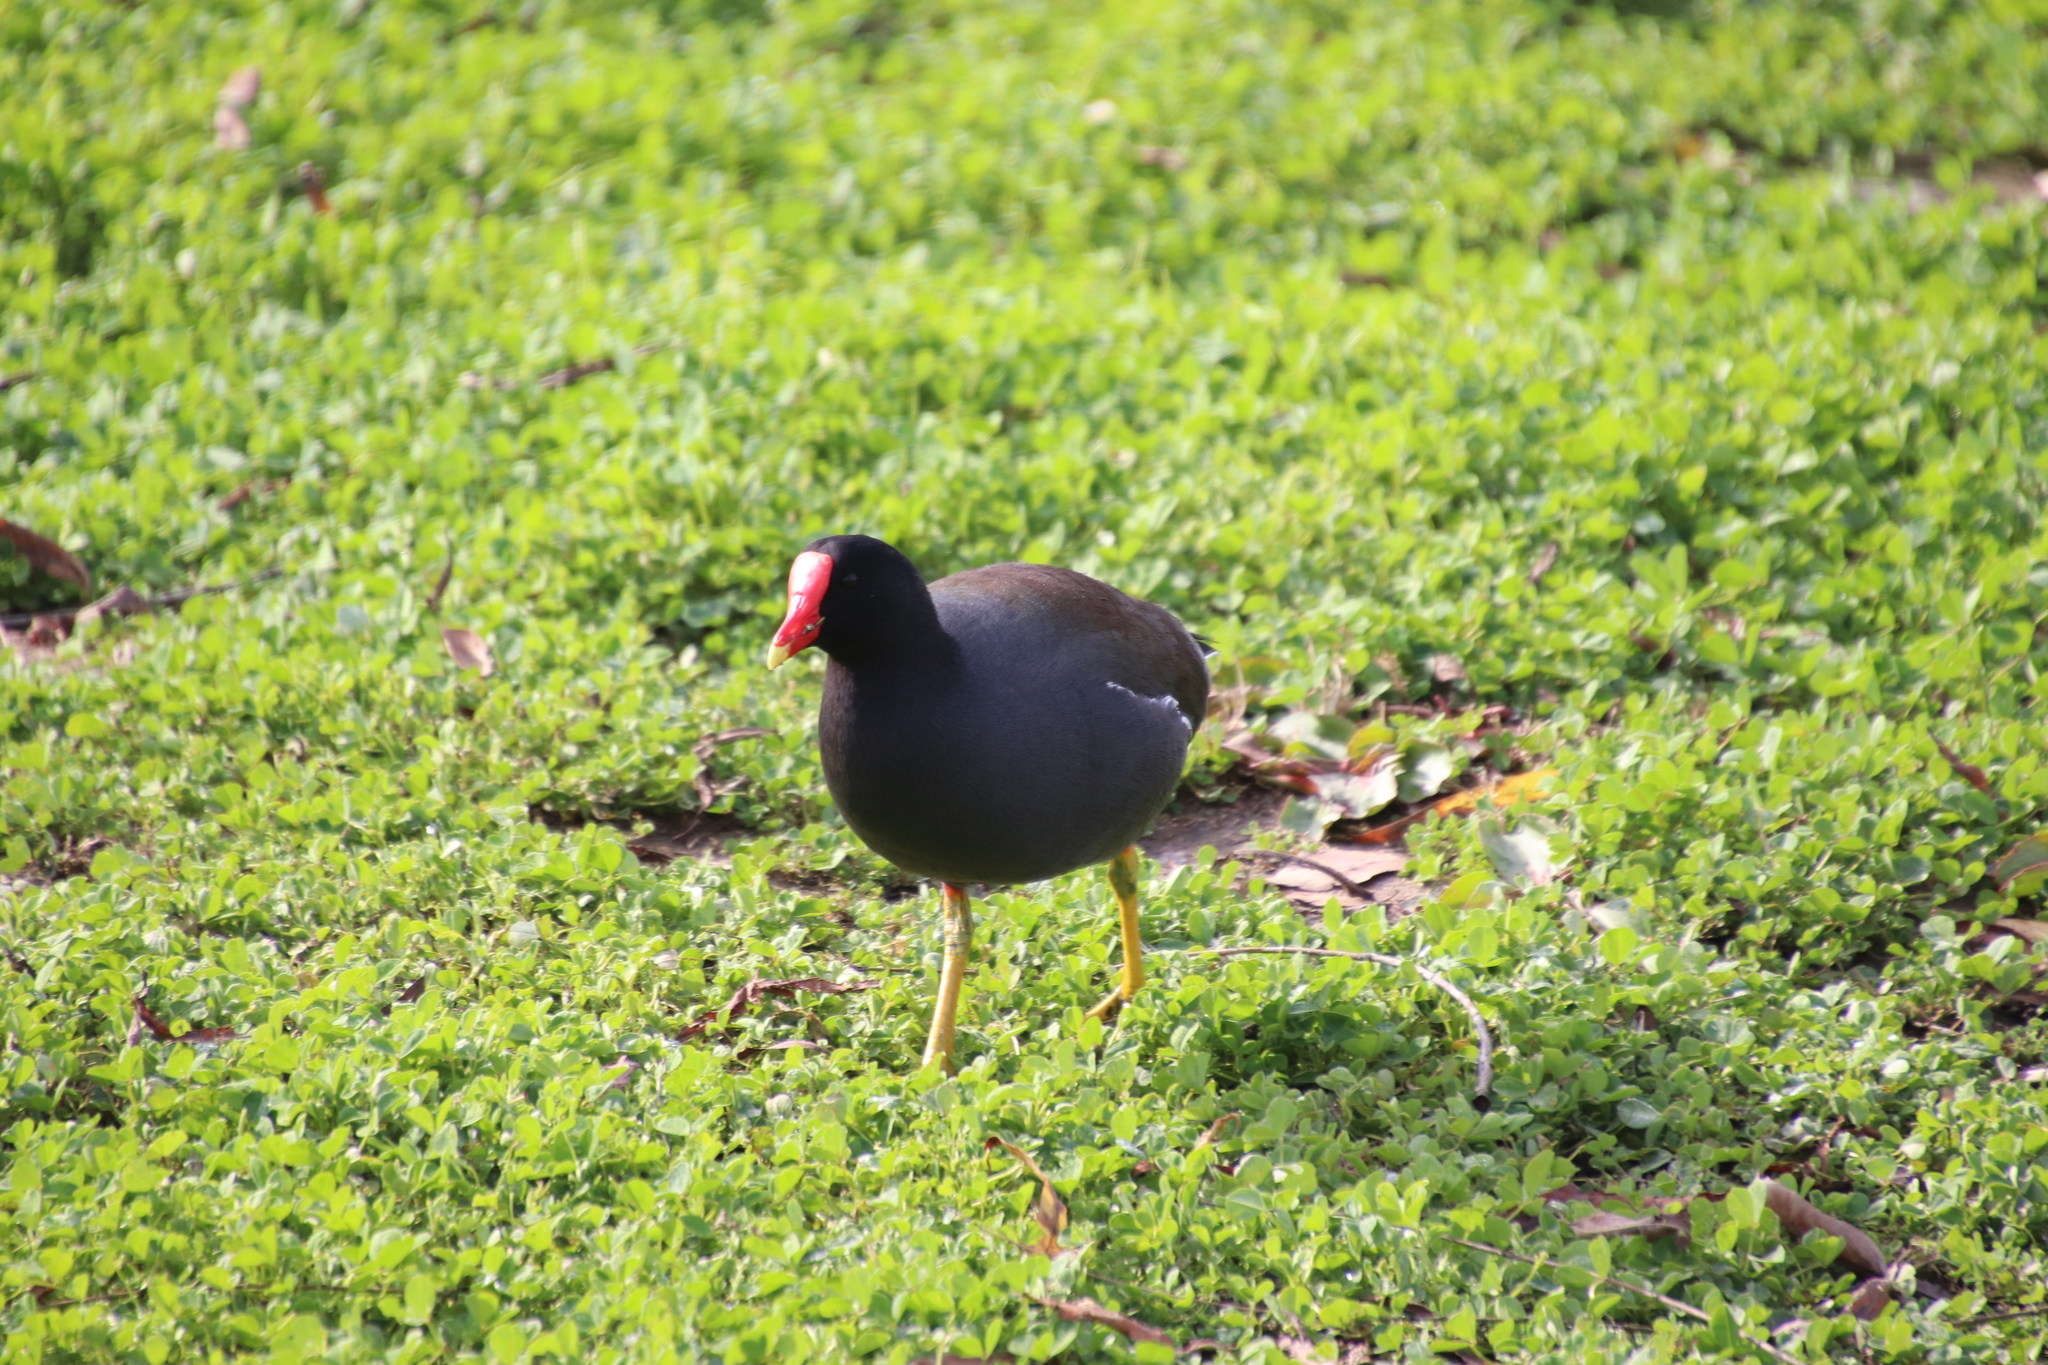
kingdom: Animalia
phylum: Chordata
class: Aves
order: Gruiformes
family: Rallidae
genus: Gallinula
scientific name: Gallinula chloropus
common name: Common moorhen
